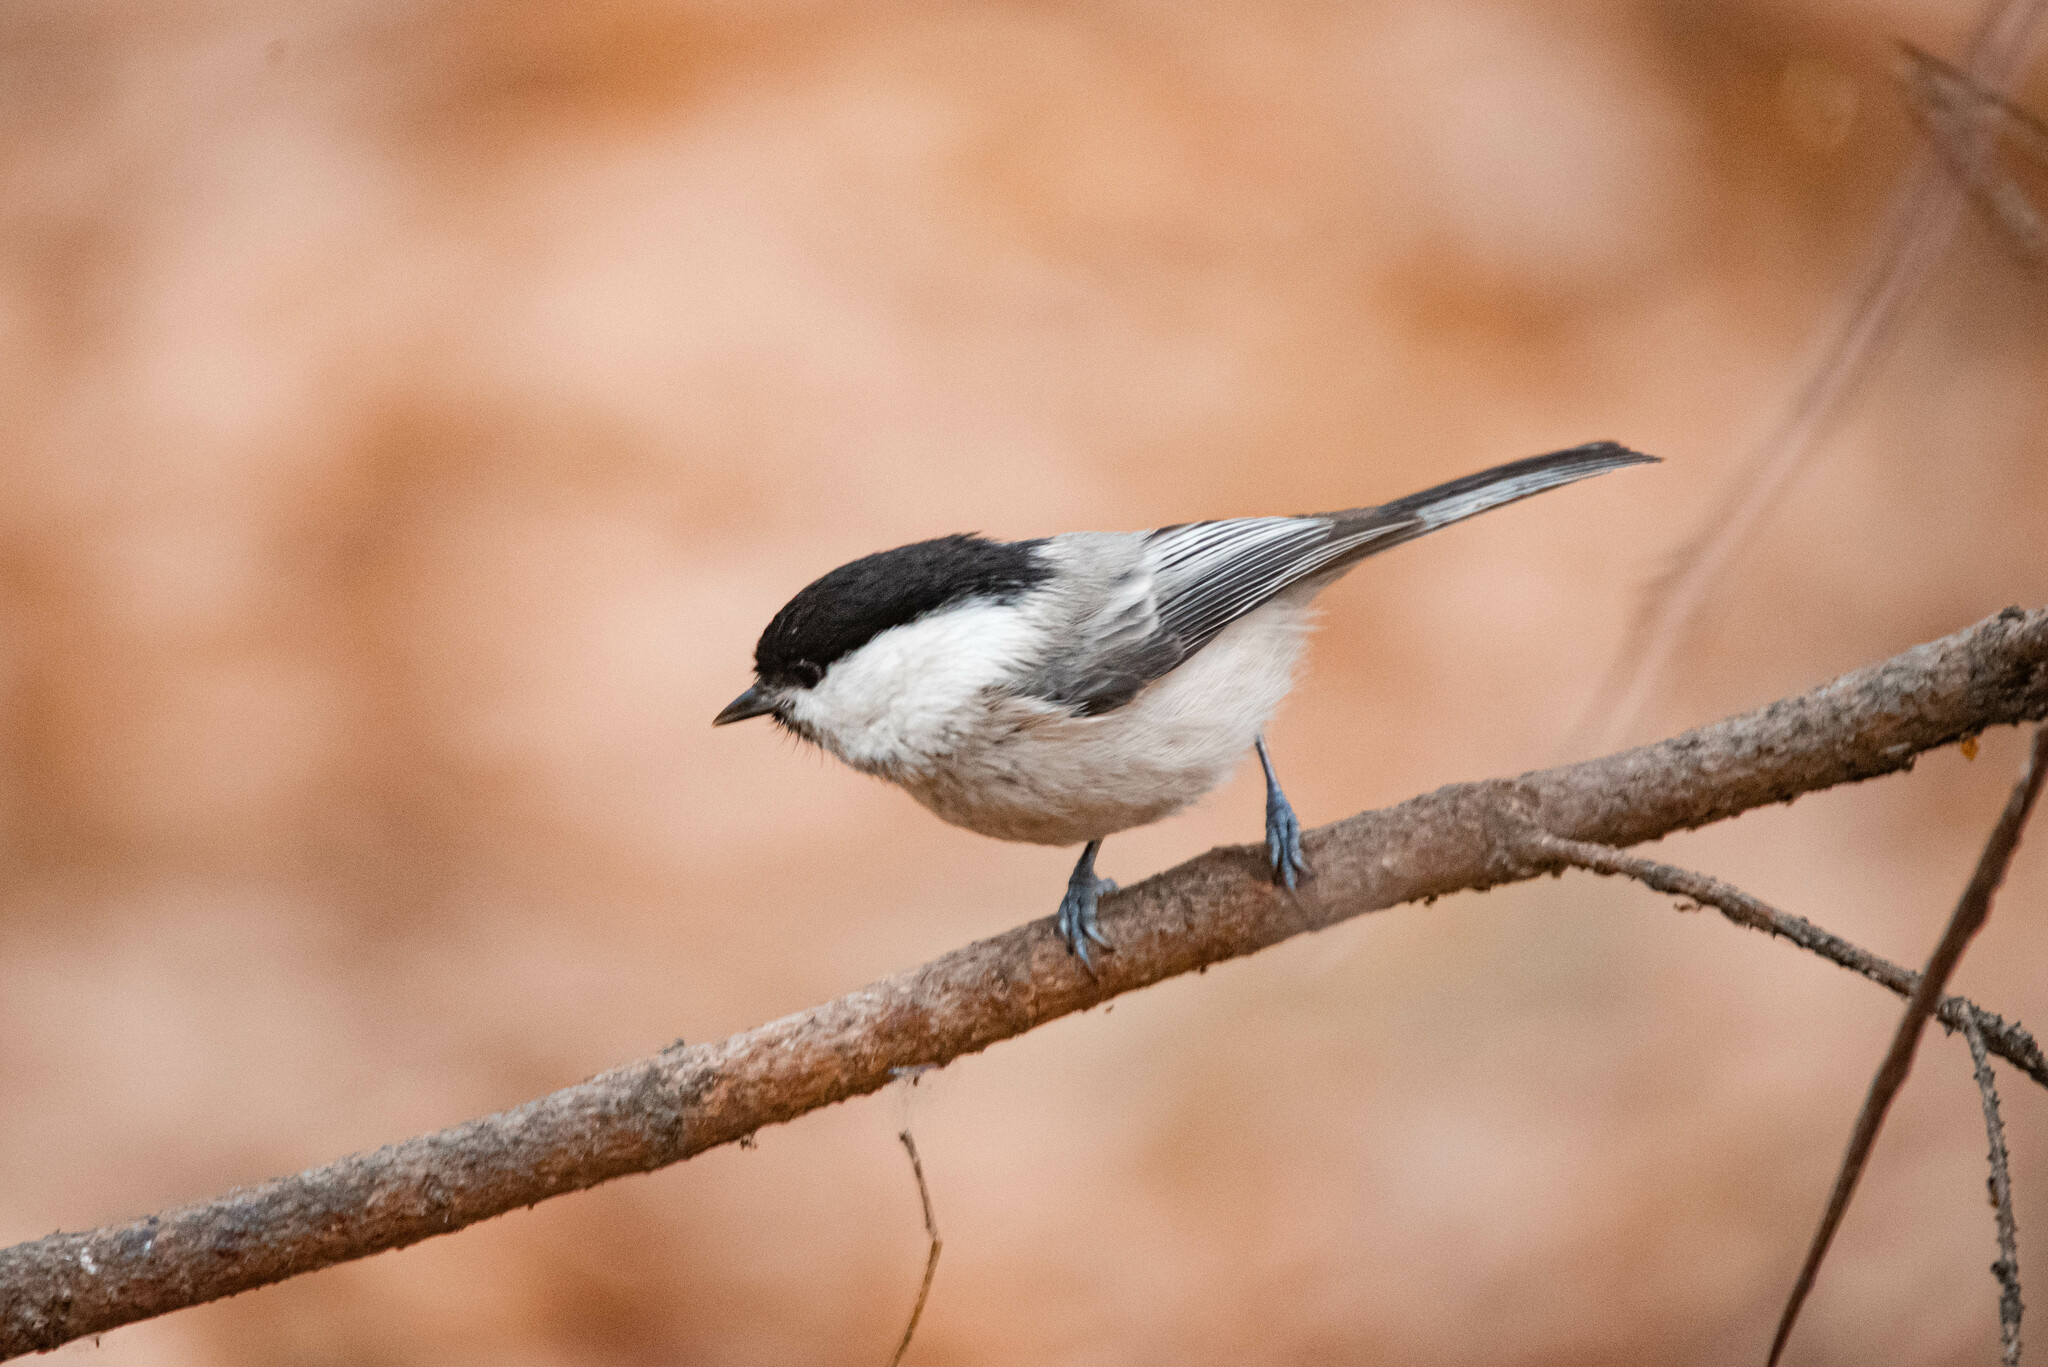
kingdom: Animalia
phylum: Chordata
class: Aves
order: Passeriformes
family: Paridae
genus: Poecile
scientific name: Poecile montanus
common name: Willow tit
